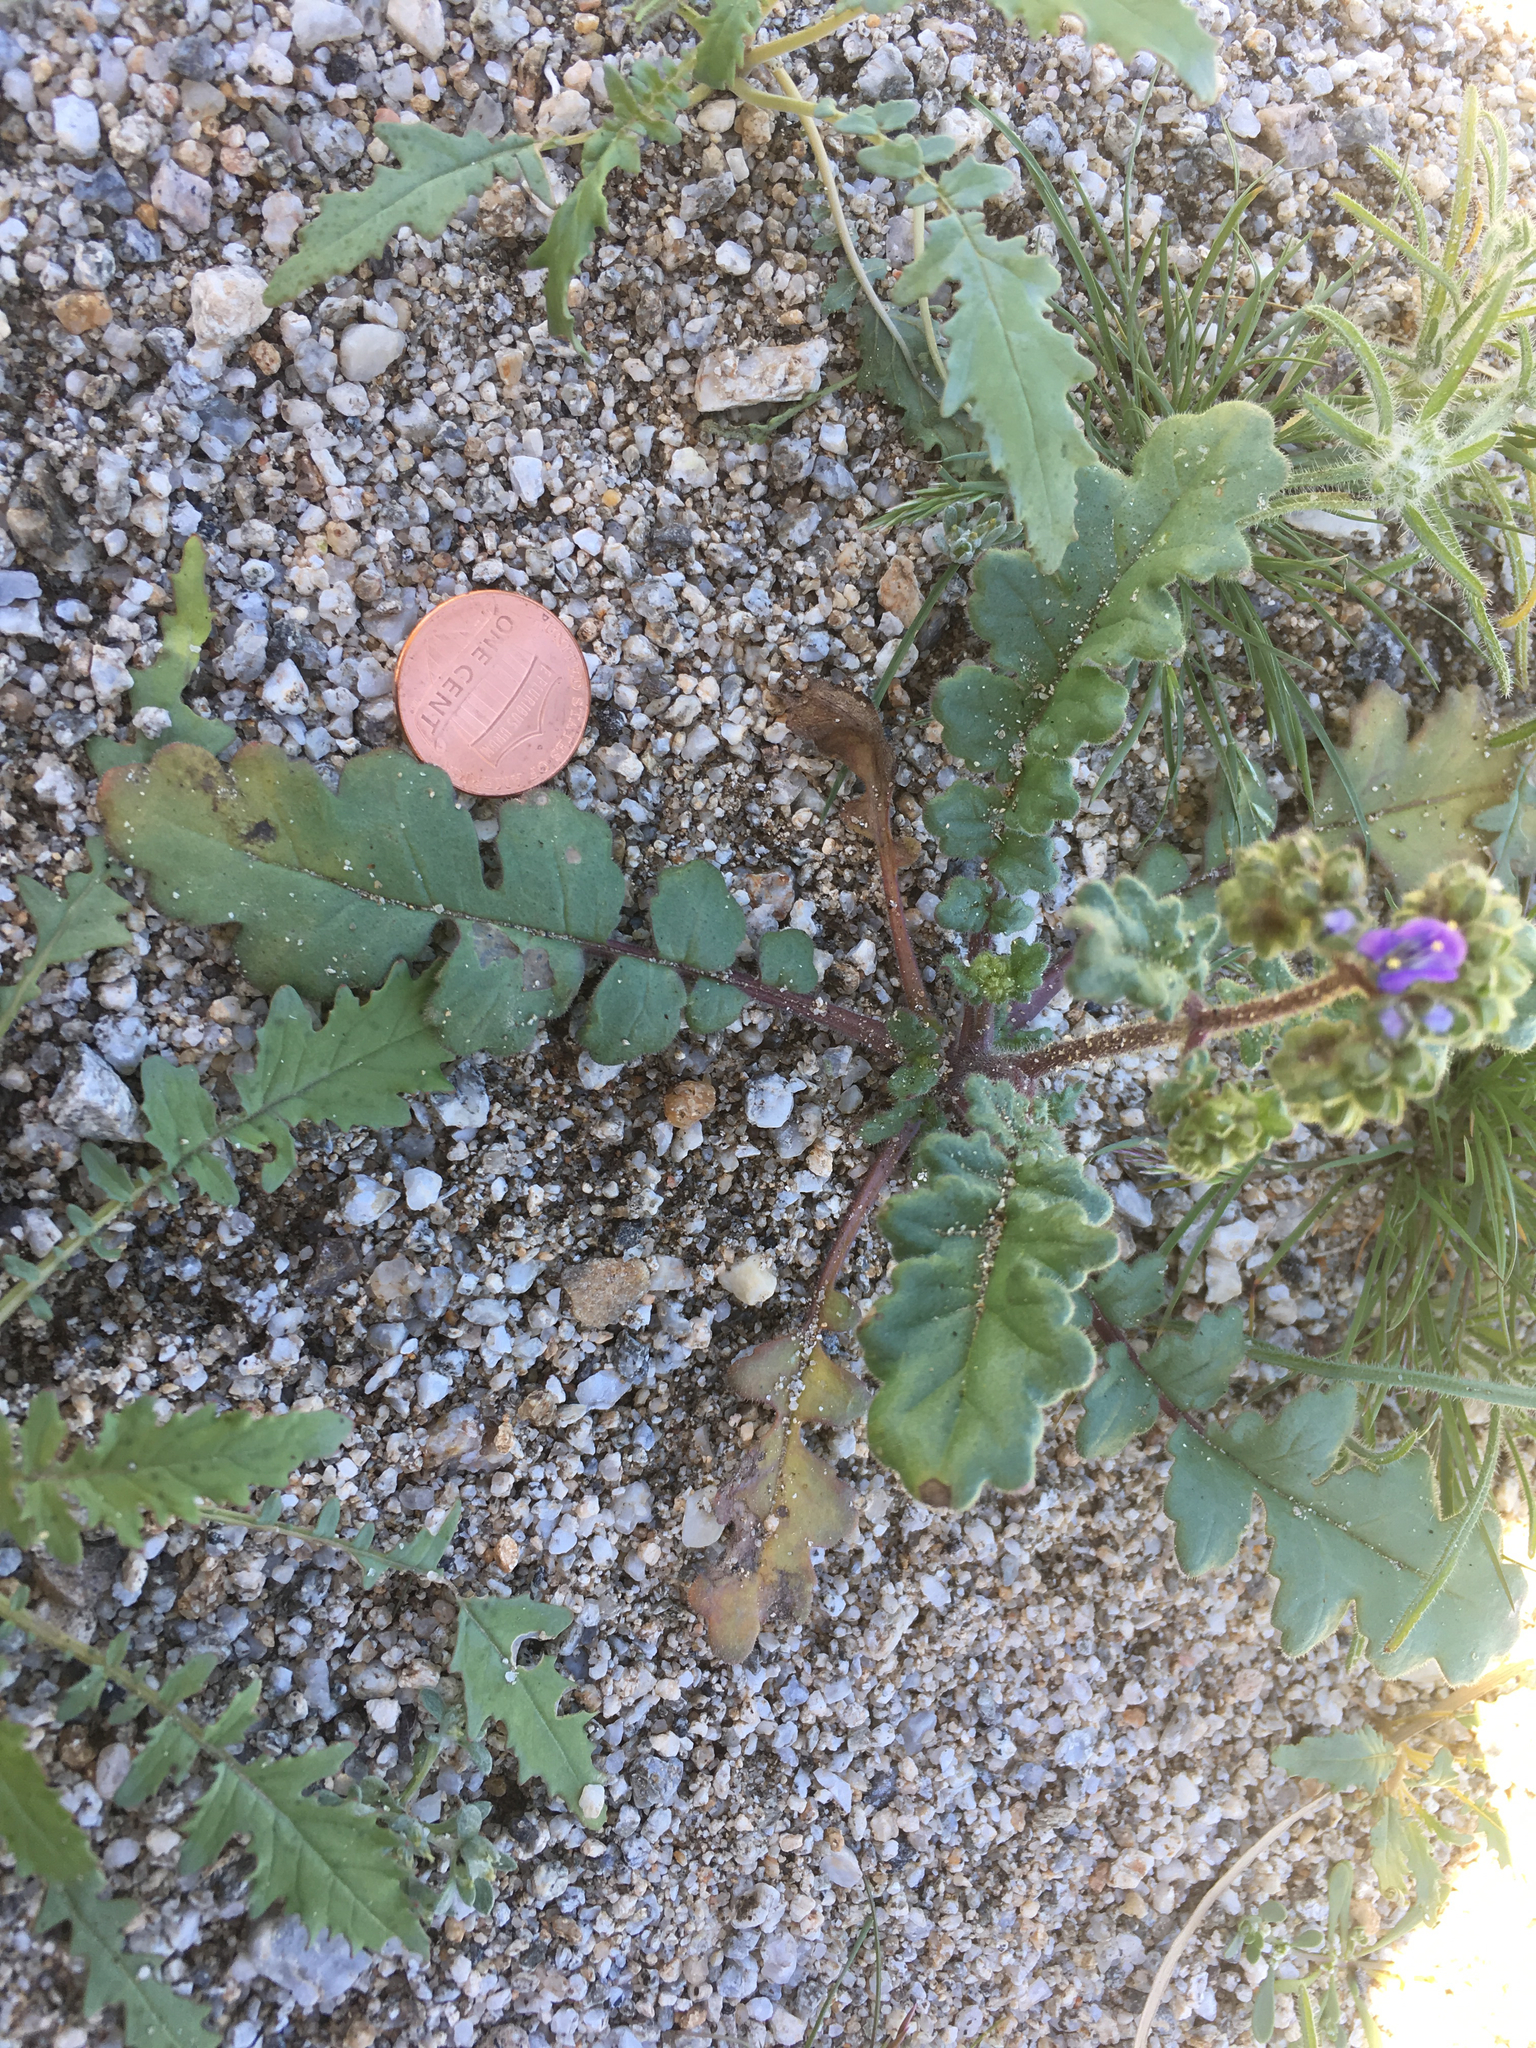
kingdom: Plantae
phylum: Tracheophyta
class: Magnoliopsida
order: Boraginales
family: Hydrophyllaceae
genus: Phacelia
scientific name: Phacelia crenulata
